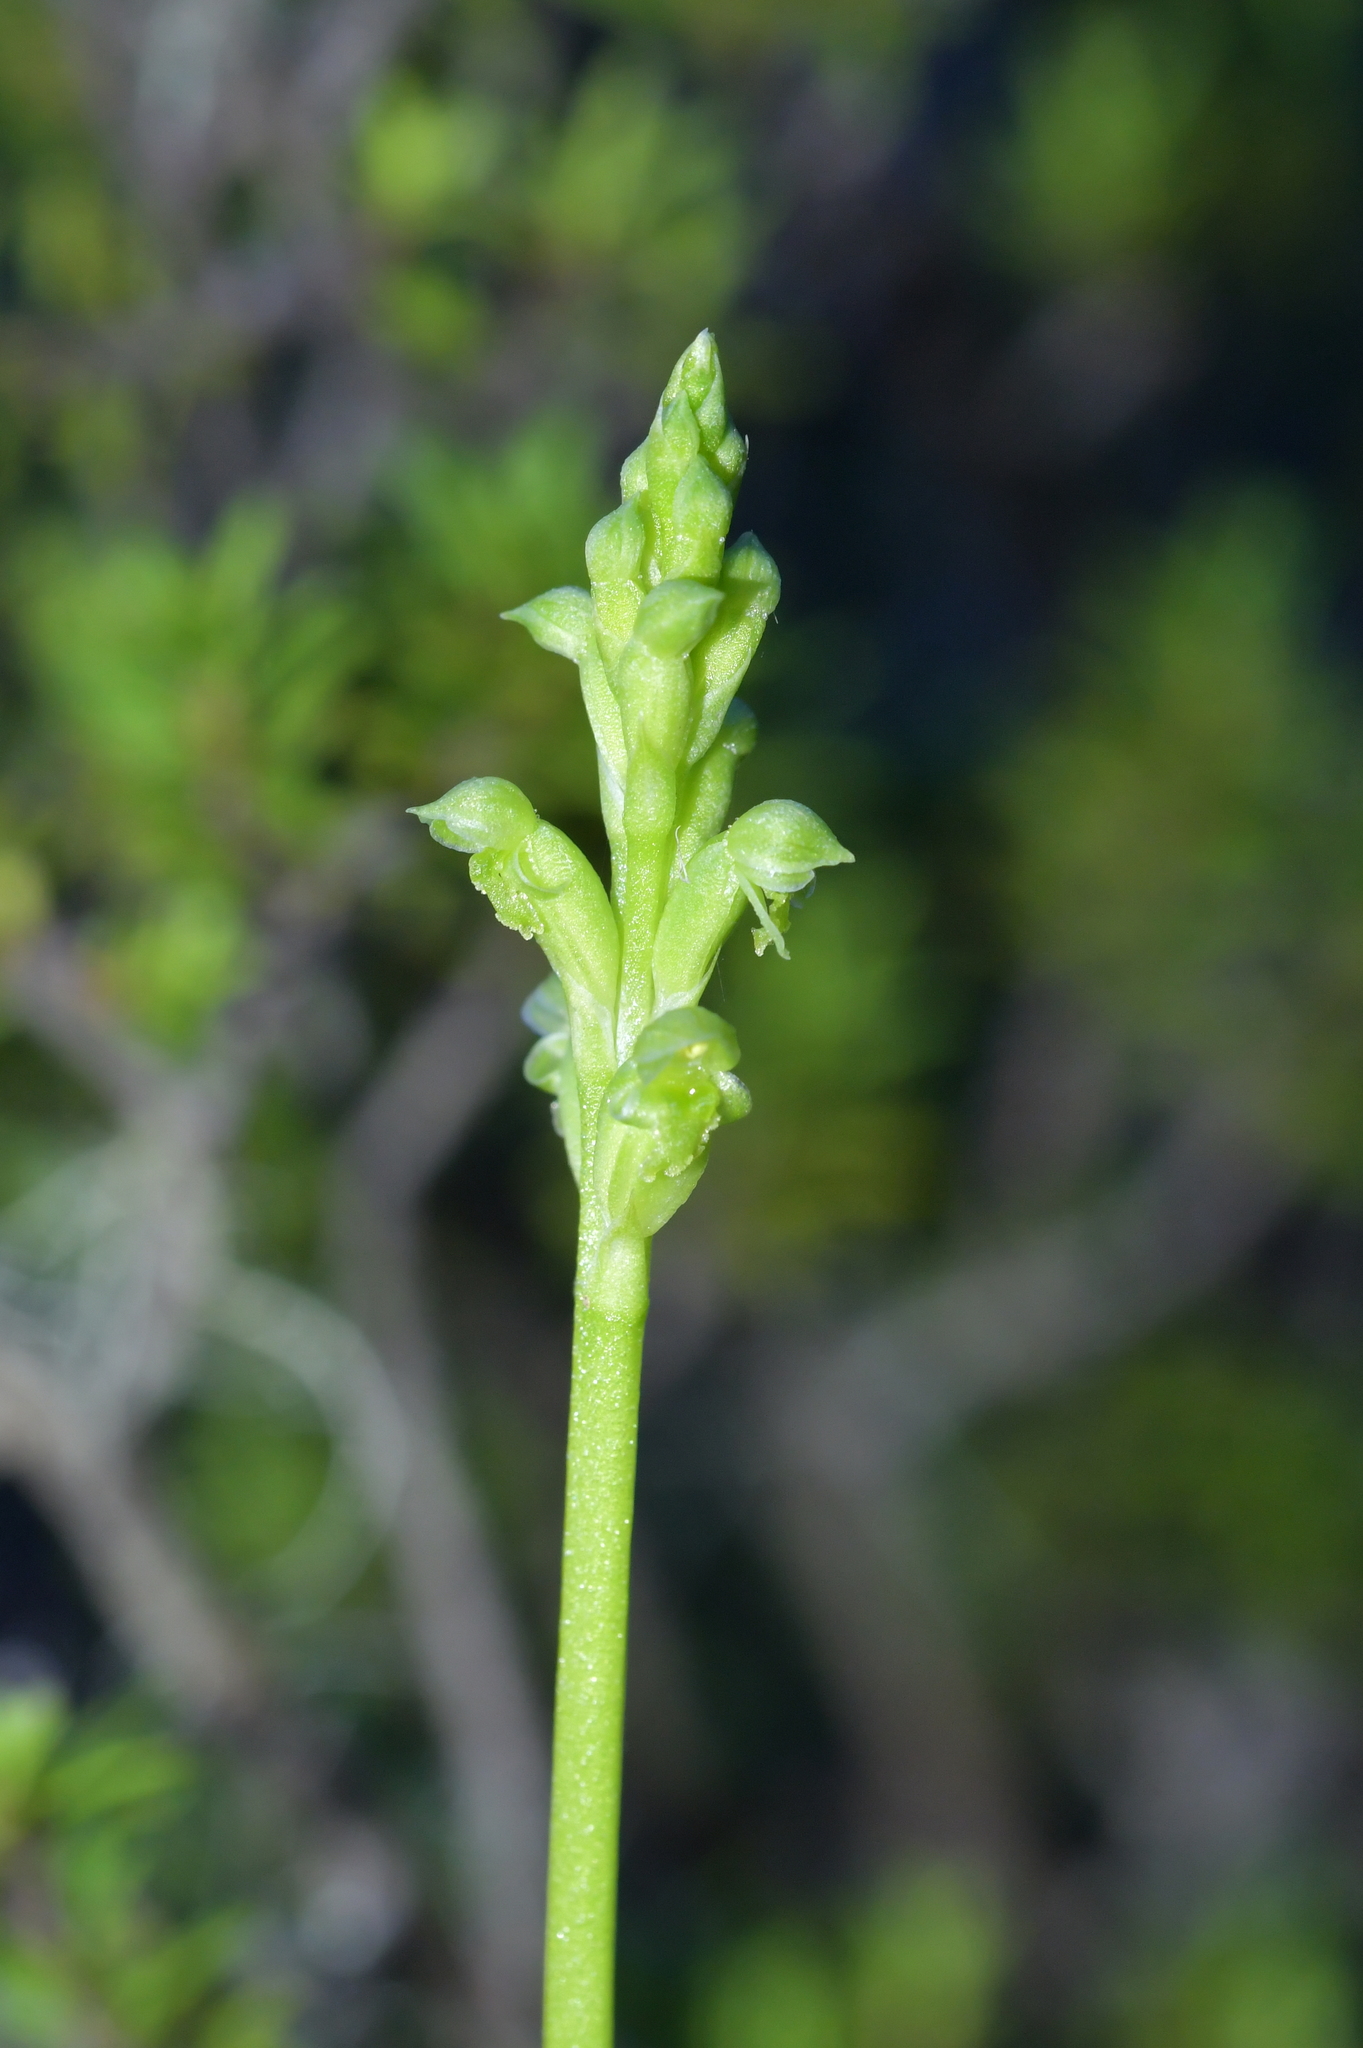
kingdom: Plantae
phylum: Tracheophyta
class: Liliopsida
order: Asparagales
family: Orchidaceae
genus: Microtis
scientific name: Microtis unifolia
